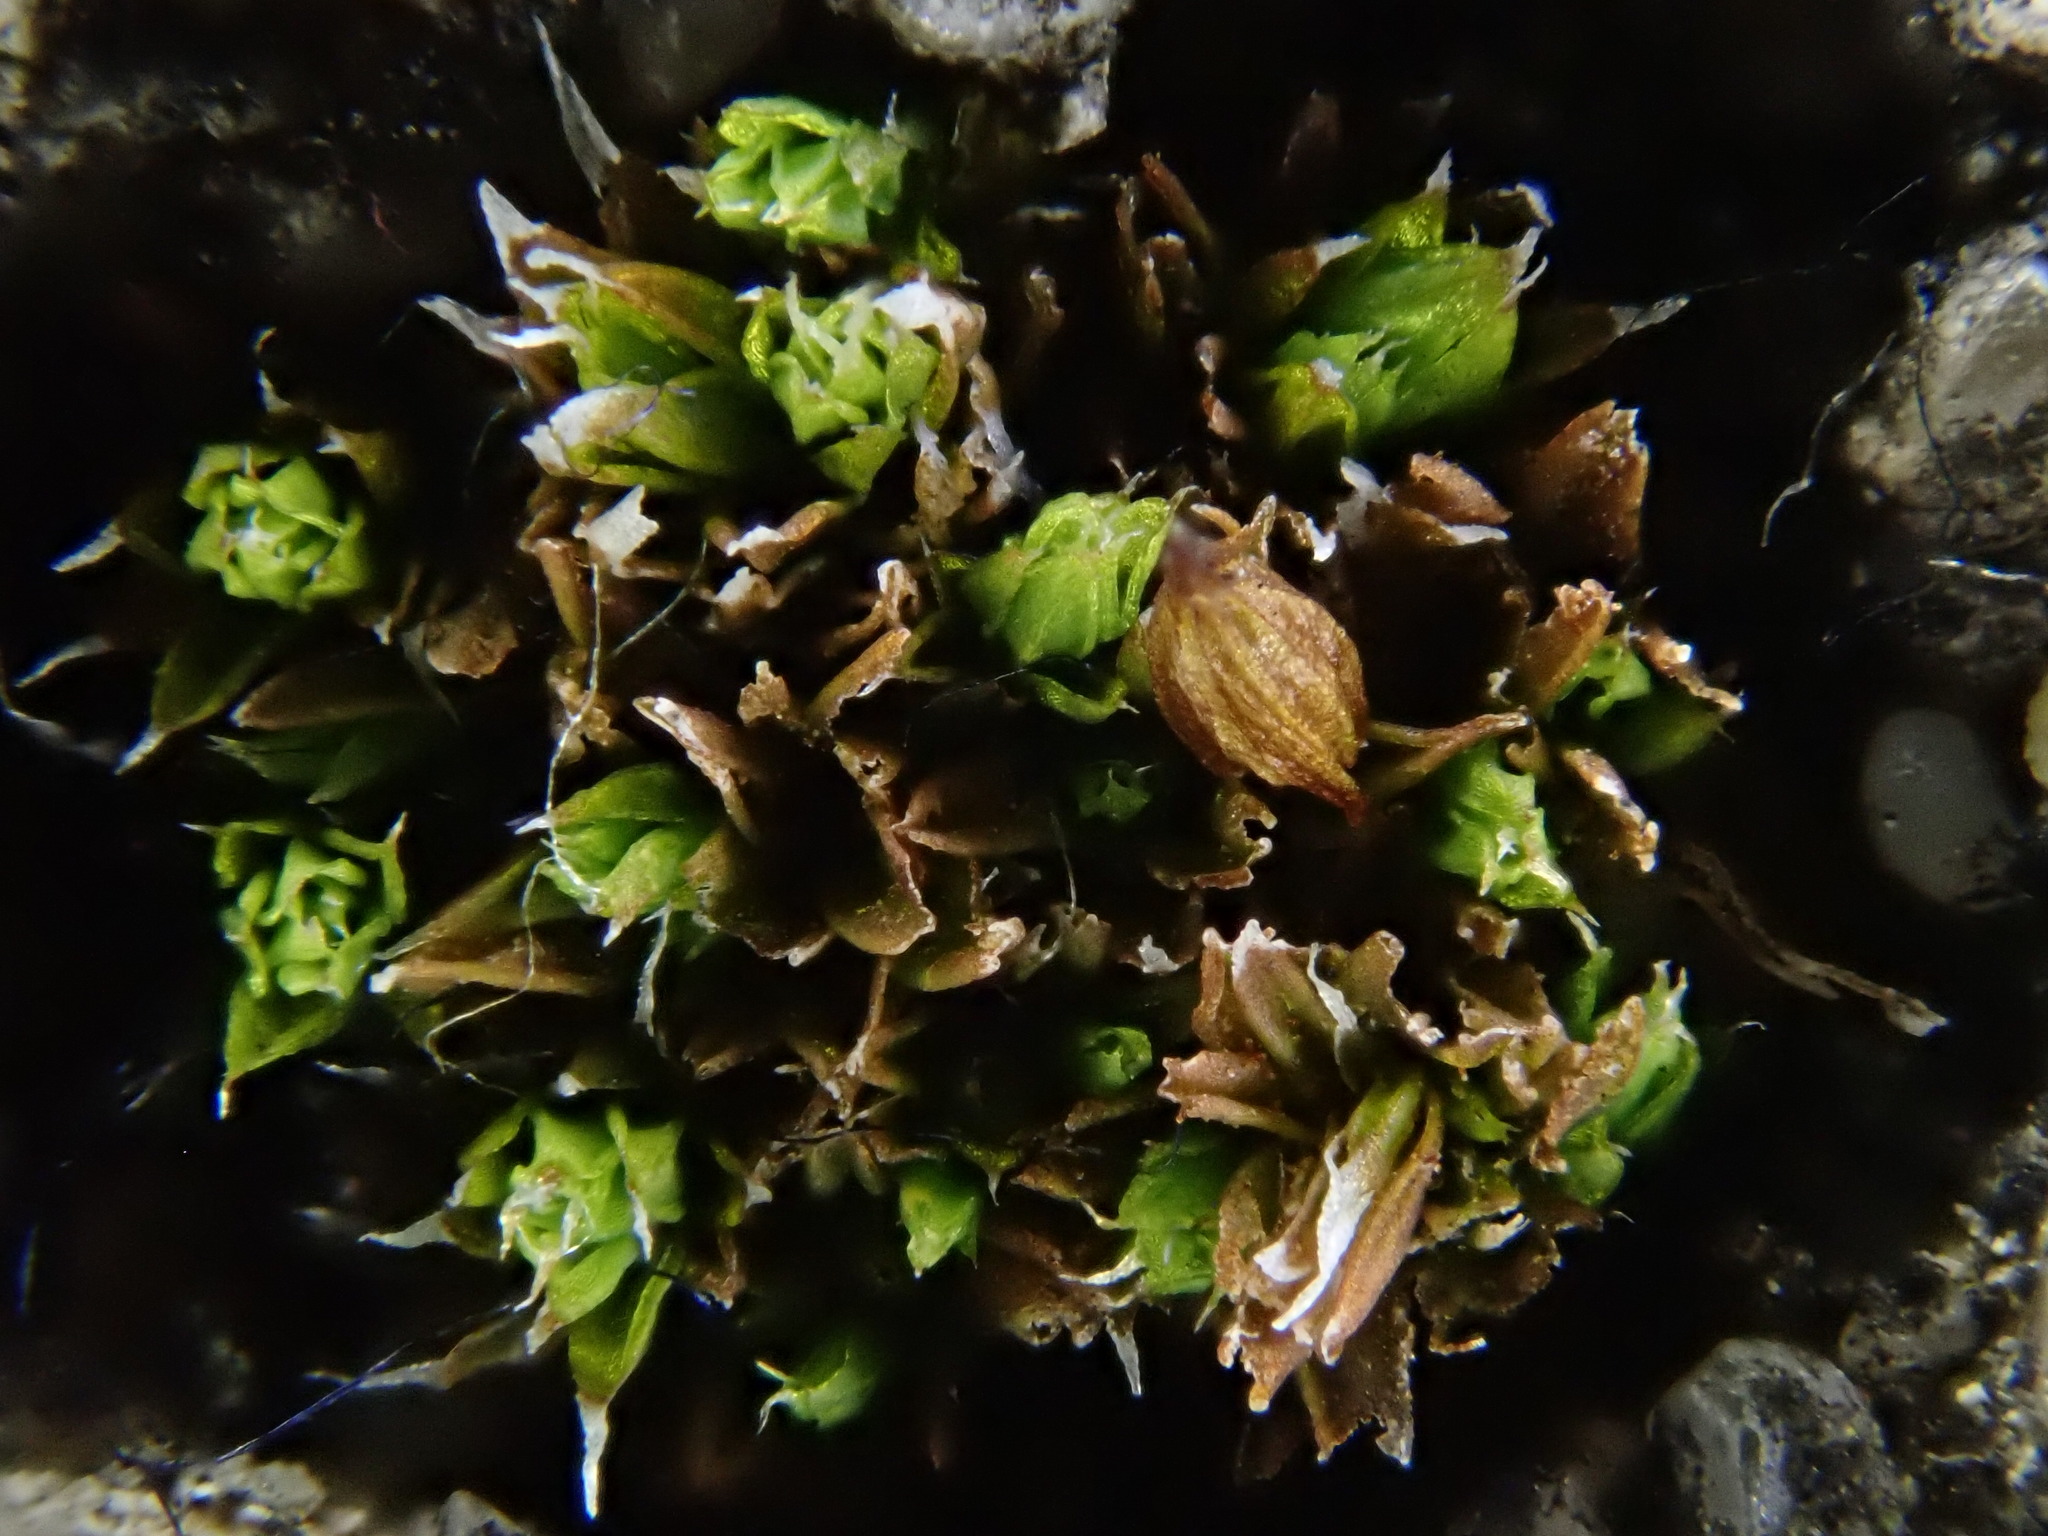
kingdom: Plantae
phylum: Bryophyta
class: Bryopsida
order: Orthotrichales
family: Orthotrichaceae
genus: Orthotrichum
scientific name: Orthotrichum diaphanum
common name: White-tipped bristle-moss
